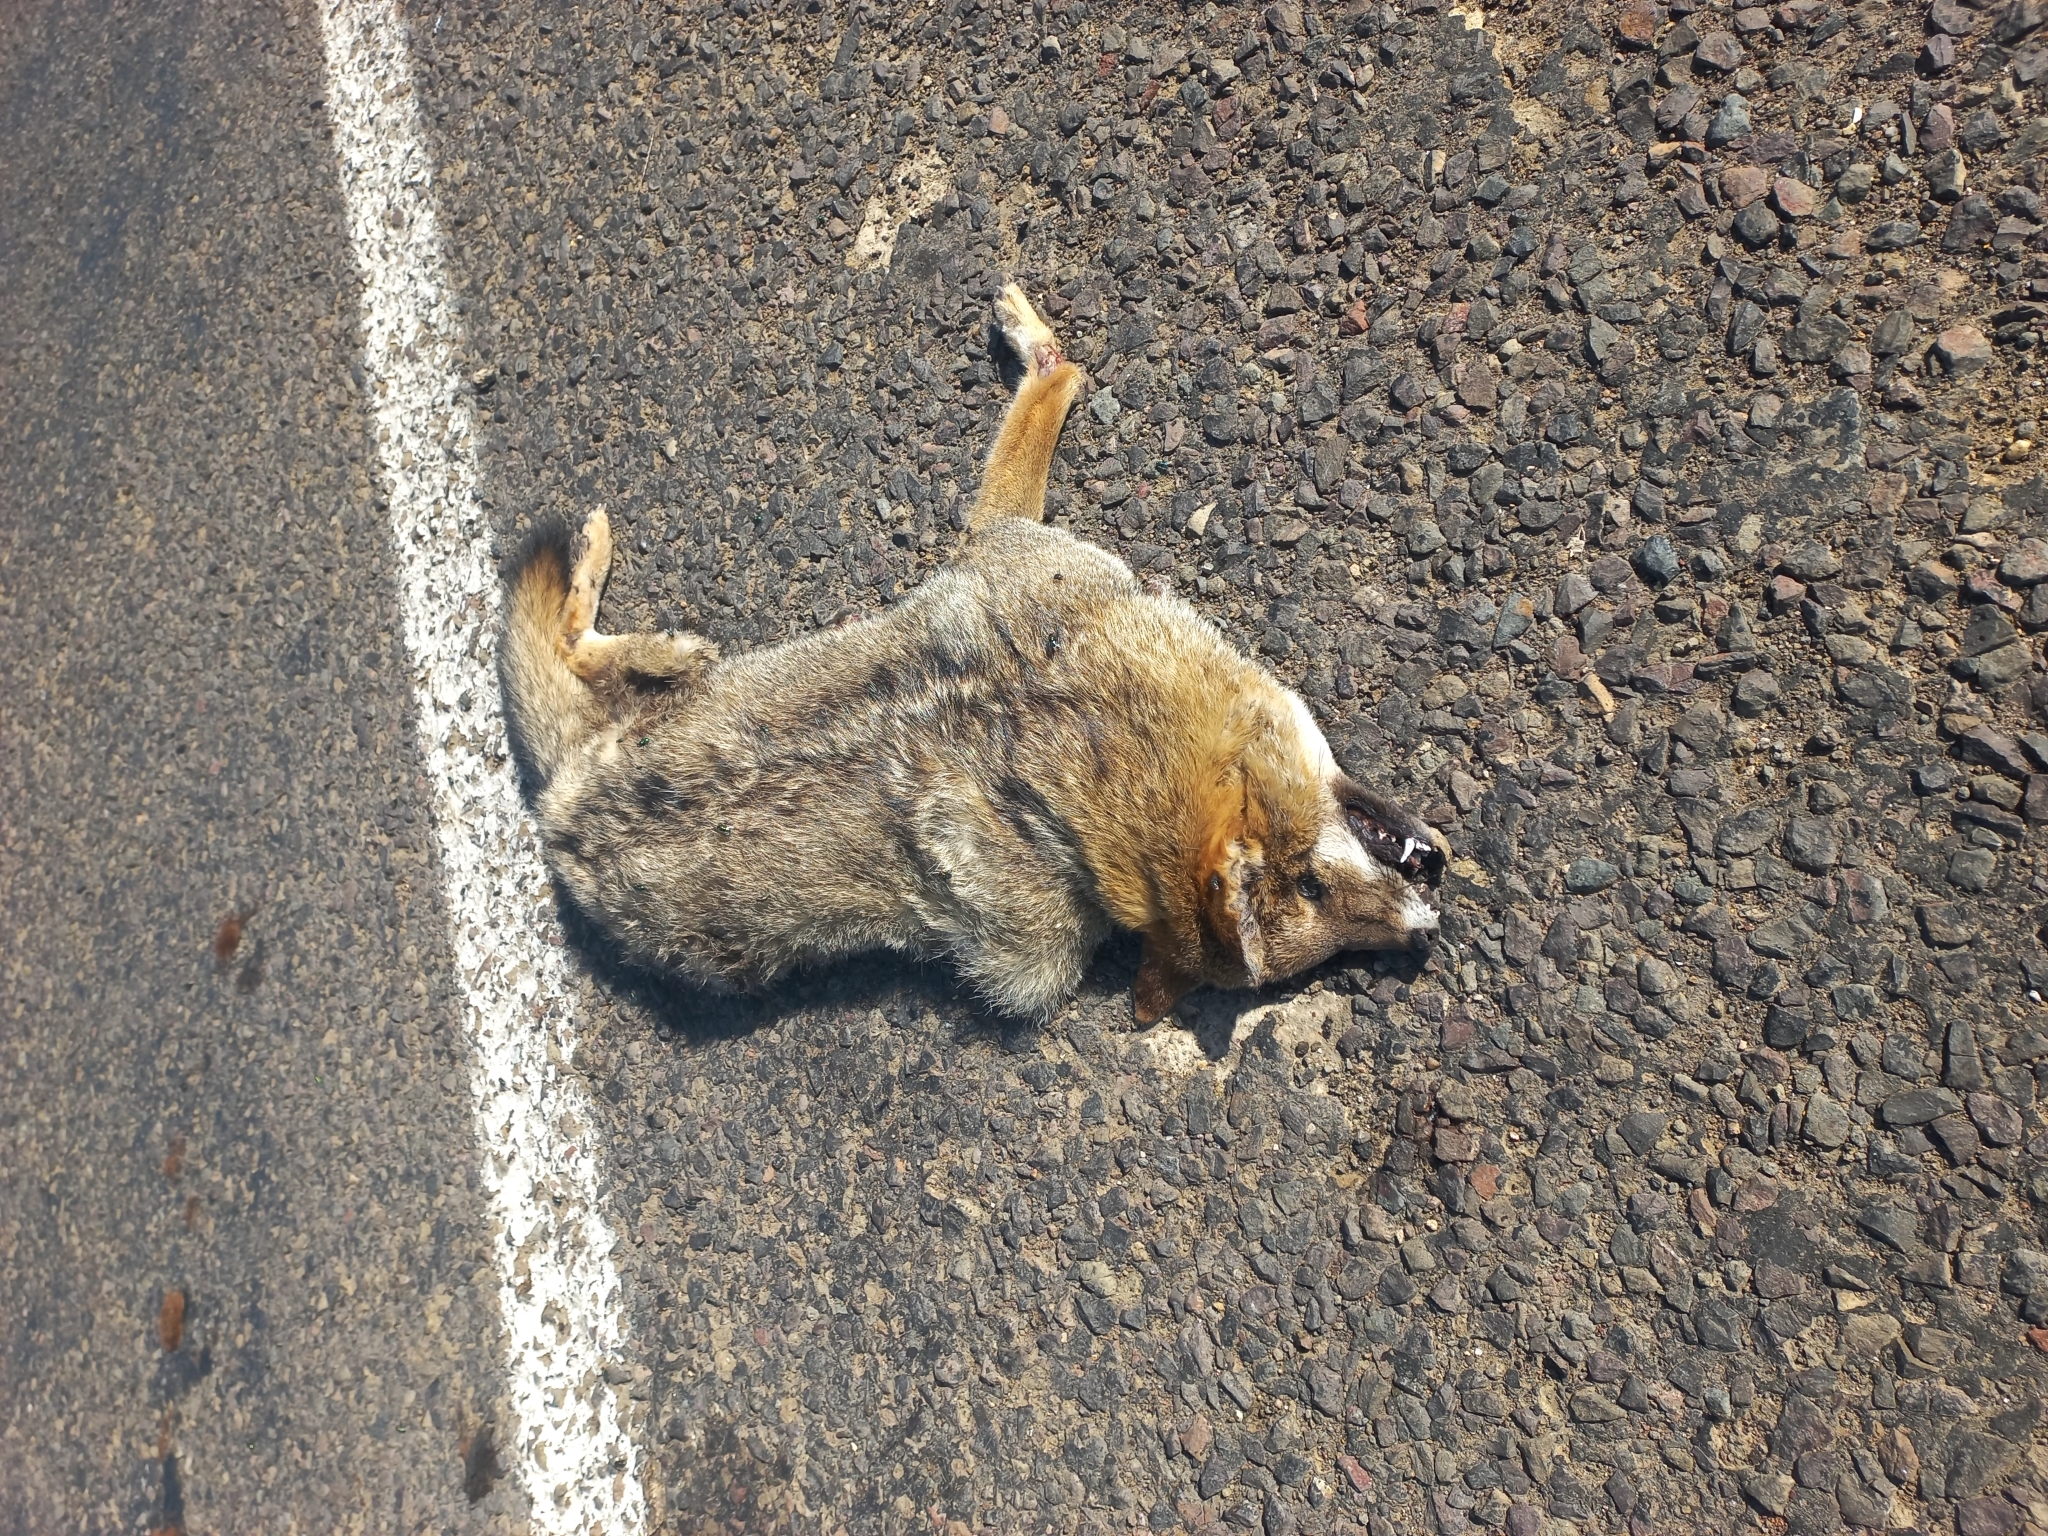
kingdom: Animalia
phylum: Chordata
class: Mammalia
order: Carnivora
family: Canidae
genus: Lycalopex
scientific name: Lycalopex gymnocercus
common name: Pampas fox
